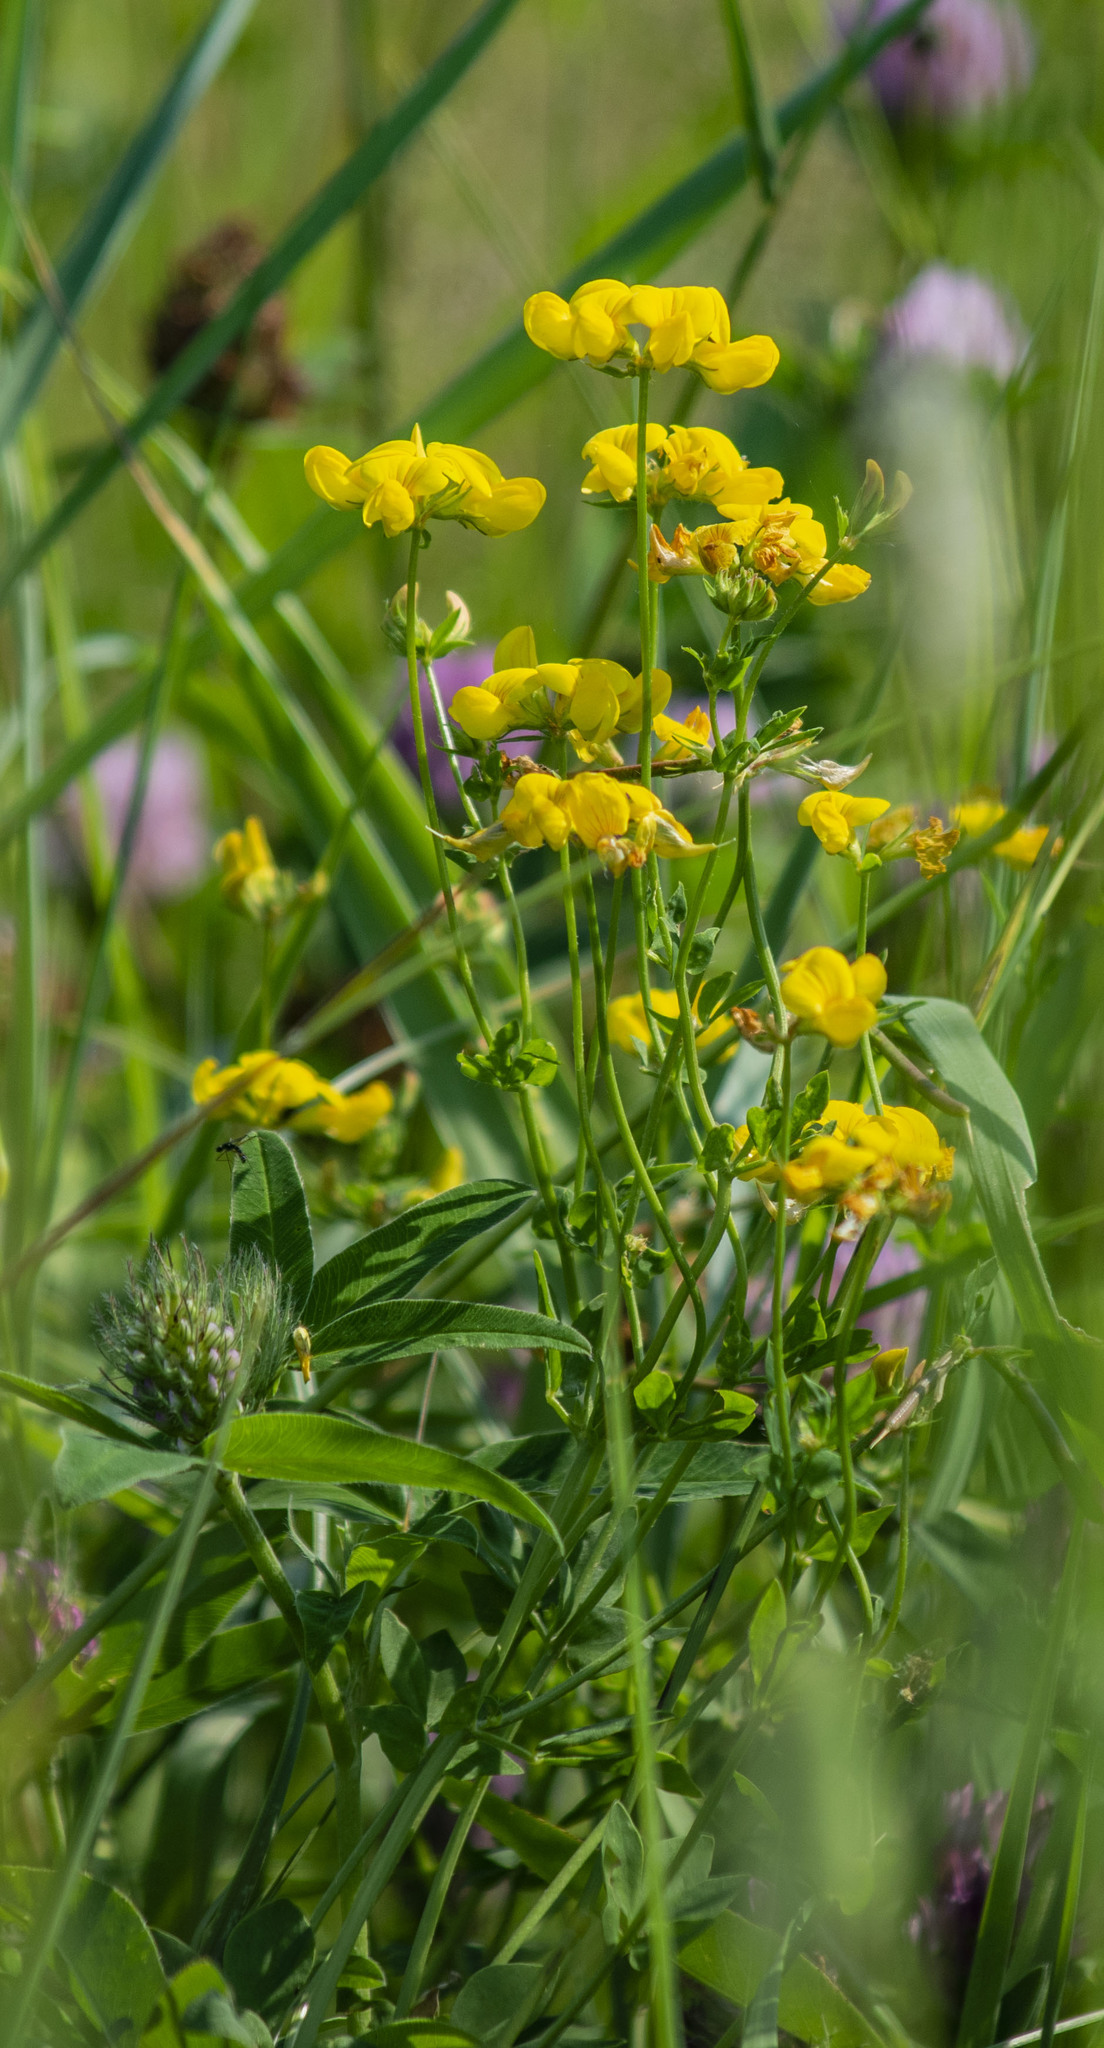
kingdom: Plantae
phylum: Tracheophyta
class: Magnoliopsida
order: Fabales
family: Fabaceae
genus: Lotus
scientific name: Lotus corniculatus
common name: Common bird's-foot-trefoil
